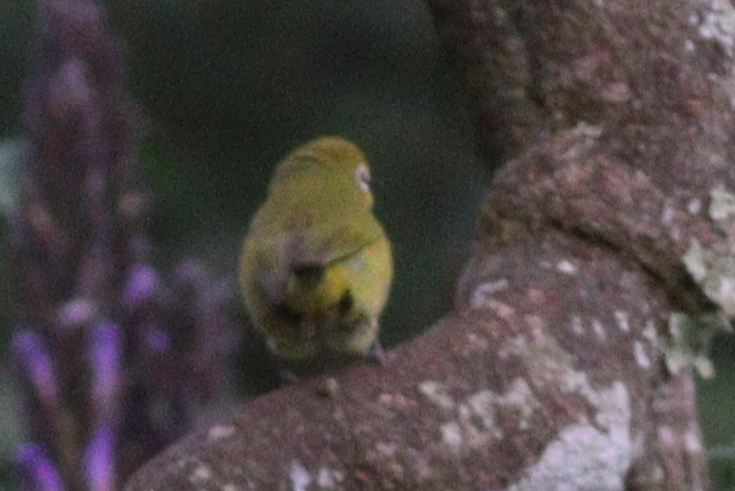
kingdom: Animalia
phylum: Chordata
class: Aves
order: Passeriformes
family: Zosteropidae
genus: Zosterops
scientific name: Zosterops senegalensis
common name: African yellow white-eye
